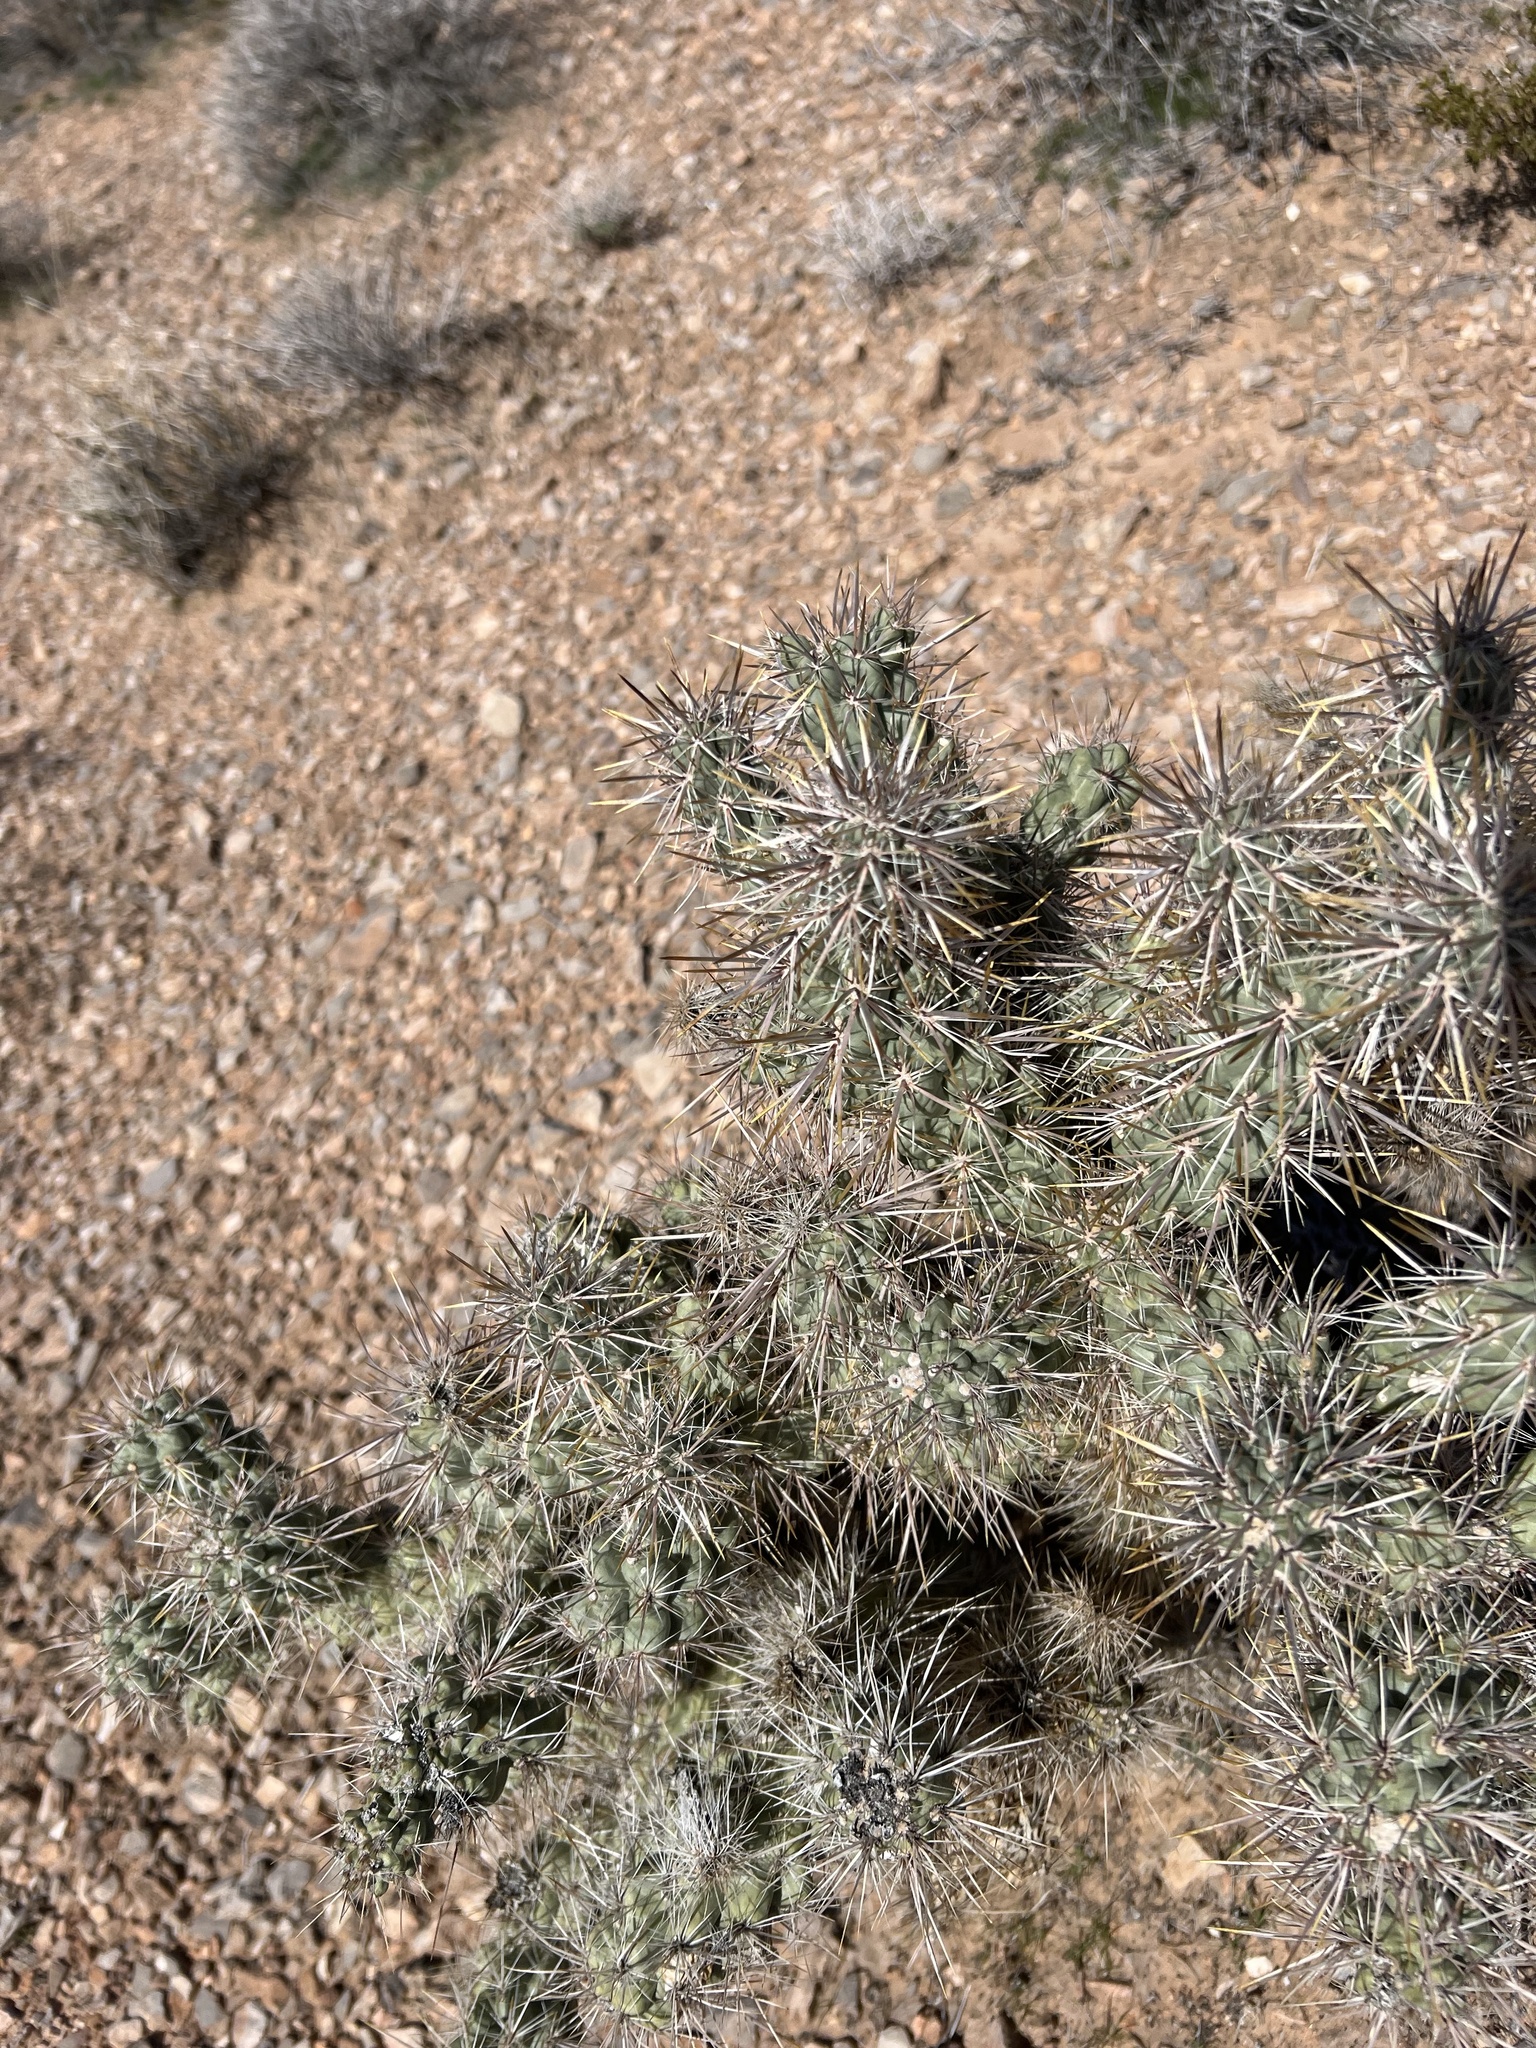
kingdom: Plantae
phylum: Tracheophyta
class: Magnoliopsida
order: Caryophyllales
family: Cactaceae
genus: Cylindropuntia
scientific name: Cylindropuntia echinocarpa
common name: Ground cholla
